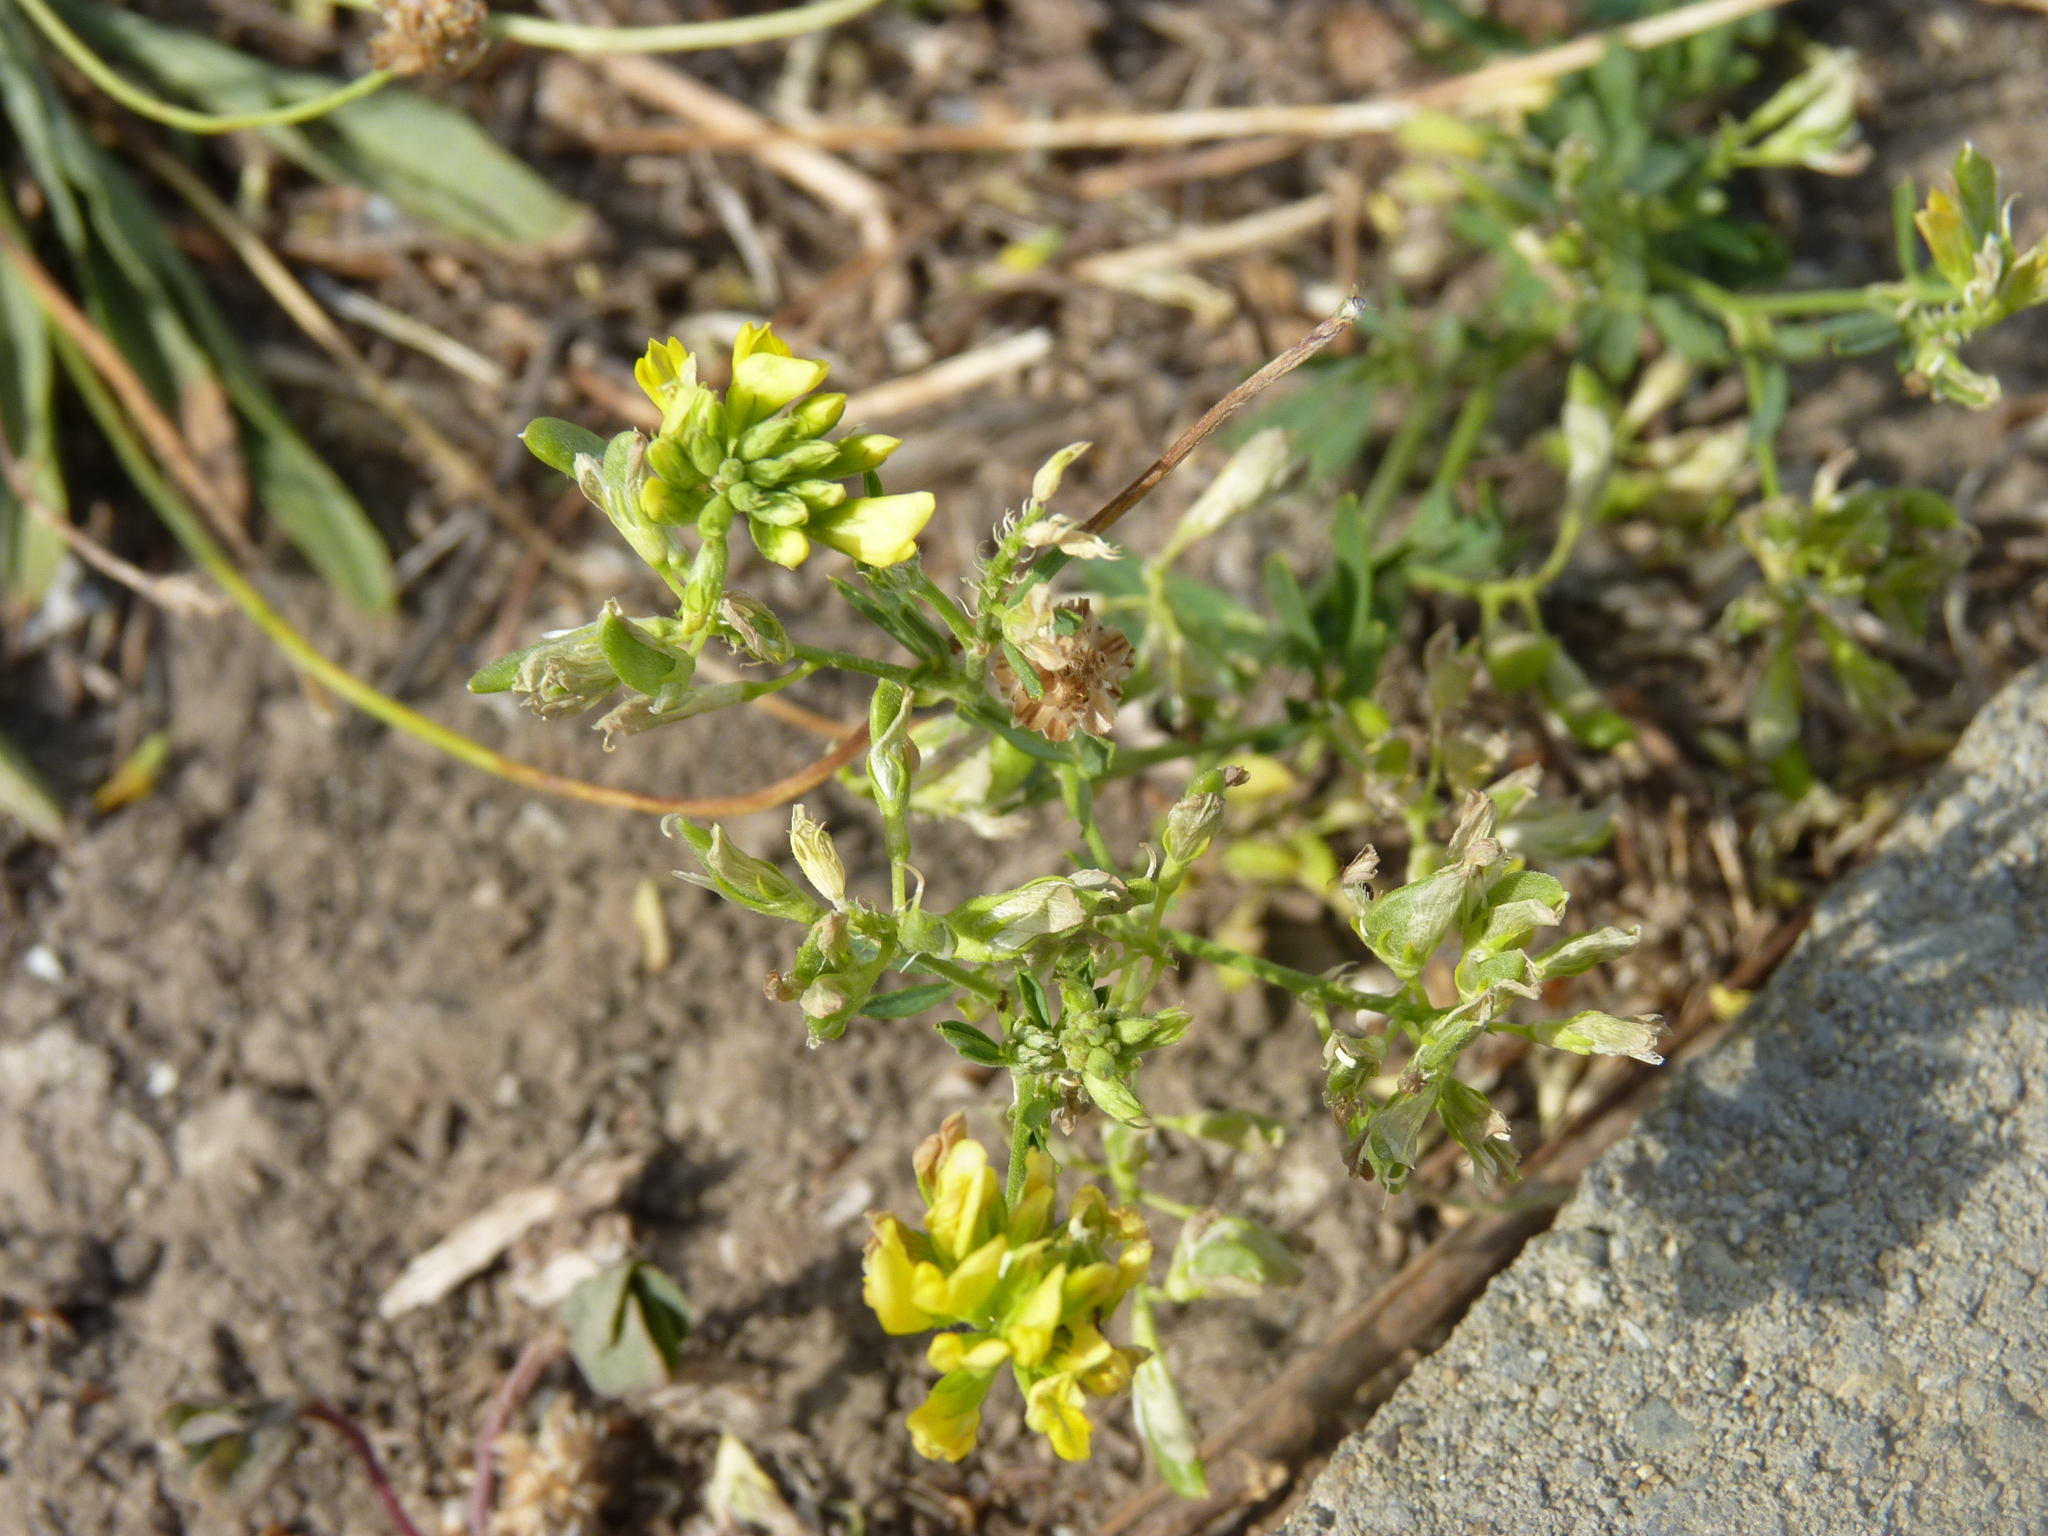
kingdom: Plantae
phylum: Tracheophyta
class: Magnoliopsida
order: Fabales
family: Fabaceae
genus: Medicago
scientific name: Medicago falcata
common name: Sickle medick
